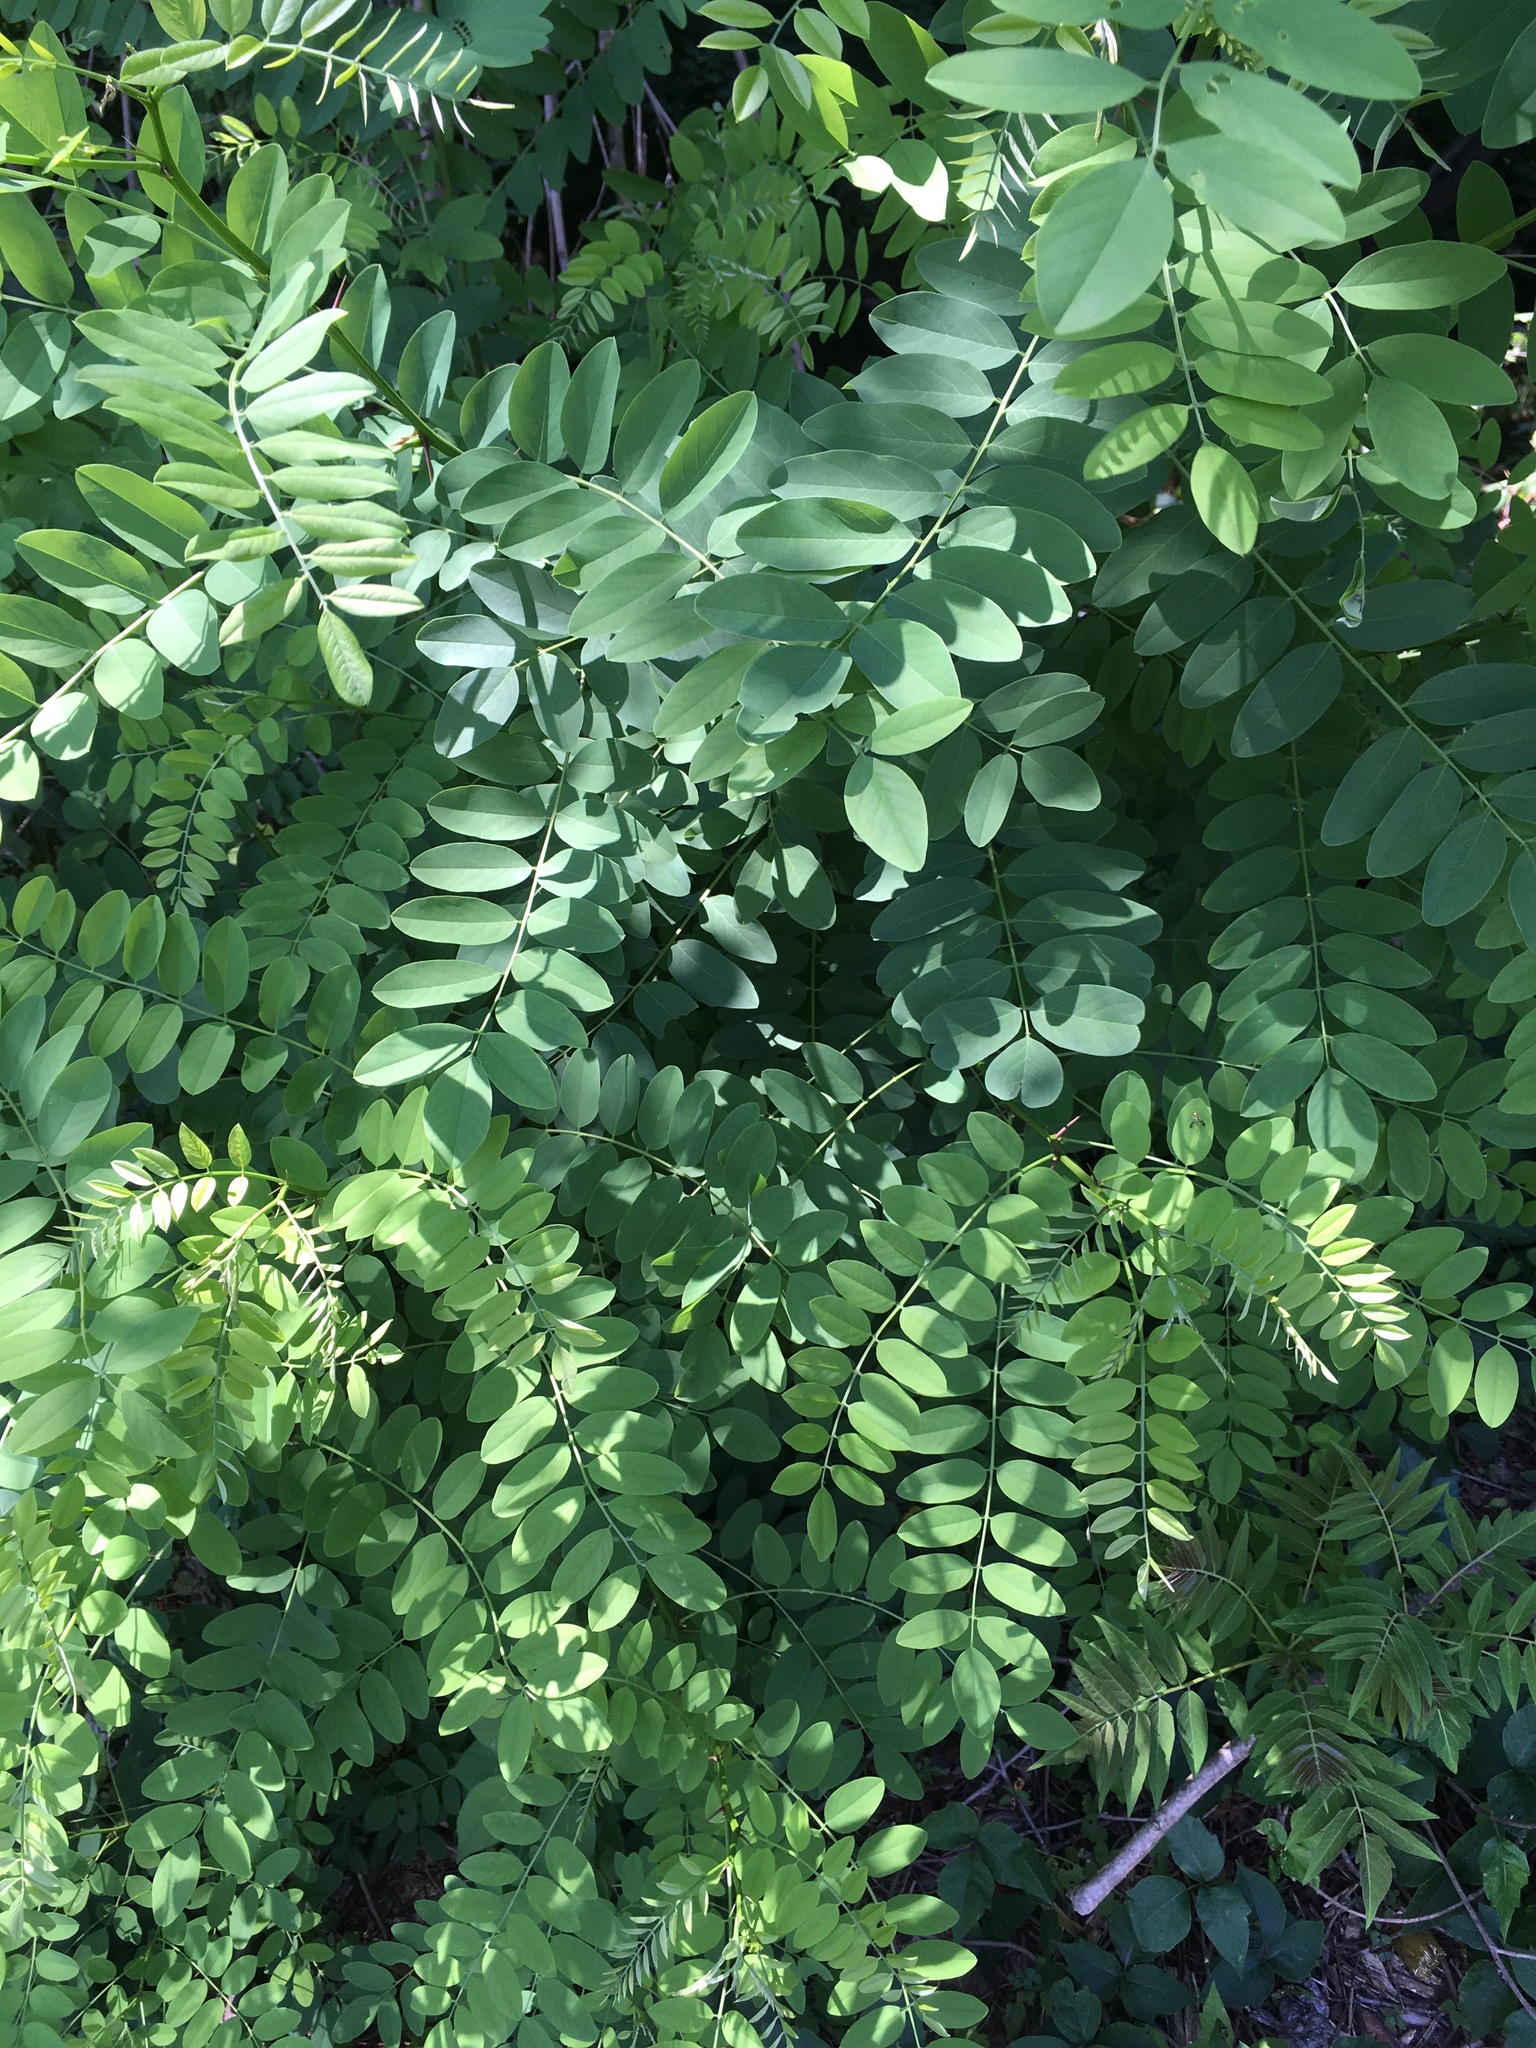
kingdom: Plantae
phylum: Tracheophyta
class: Magnoliopsida
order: Fabales
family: Fabaceae
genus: Robinia
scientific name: Robinia pseudoacacia
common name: Black locust
